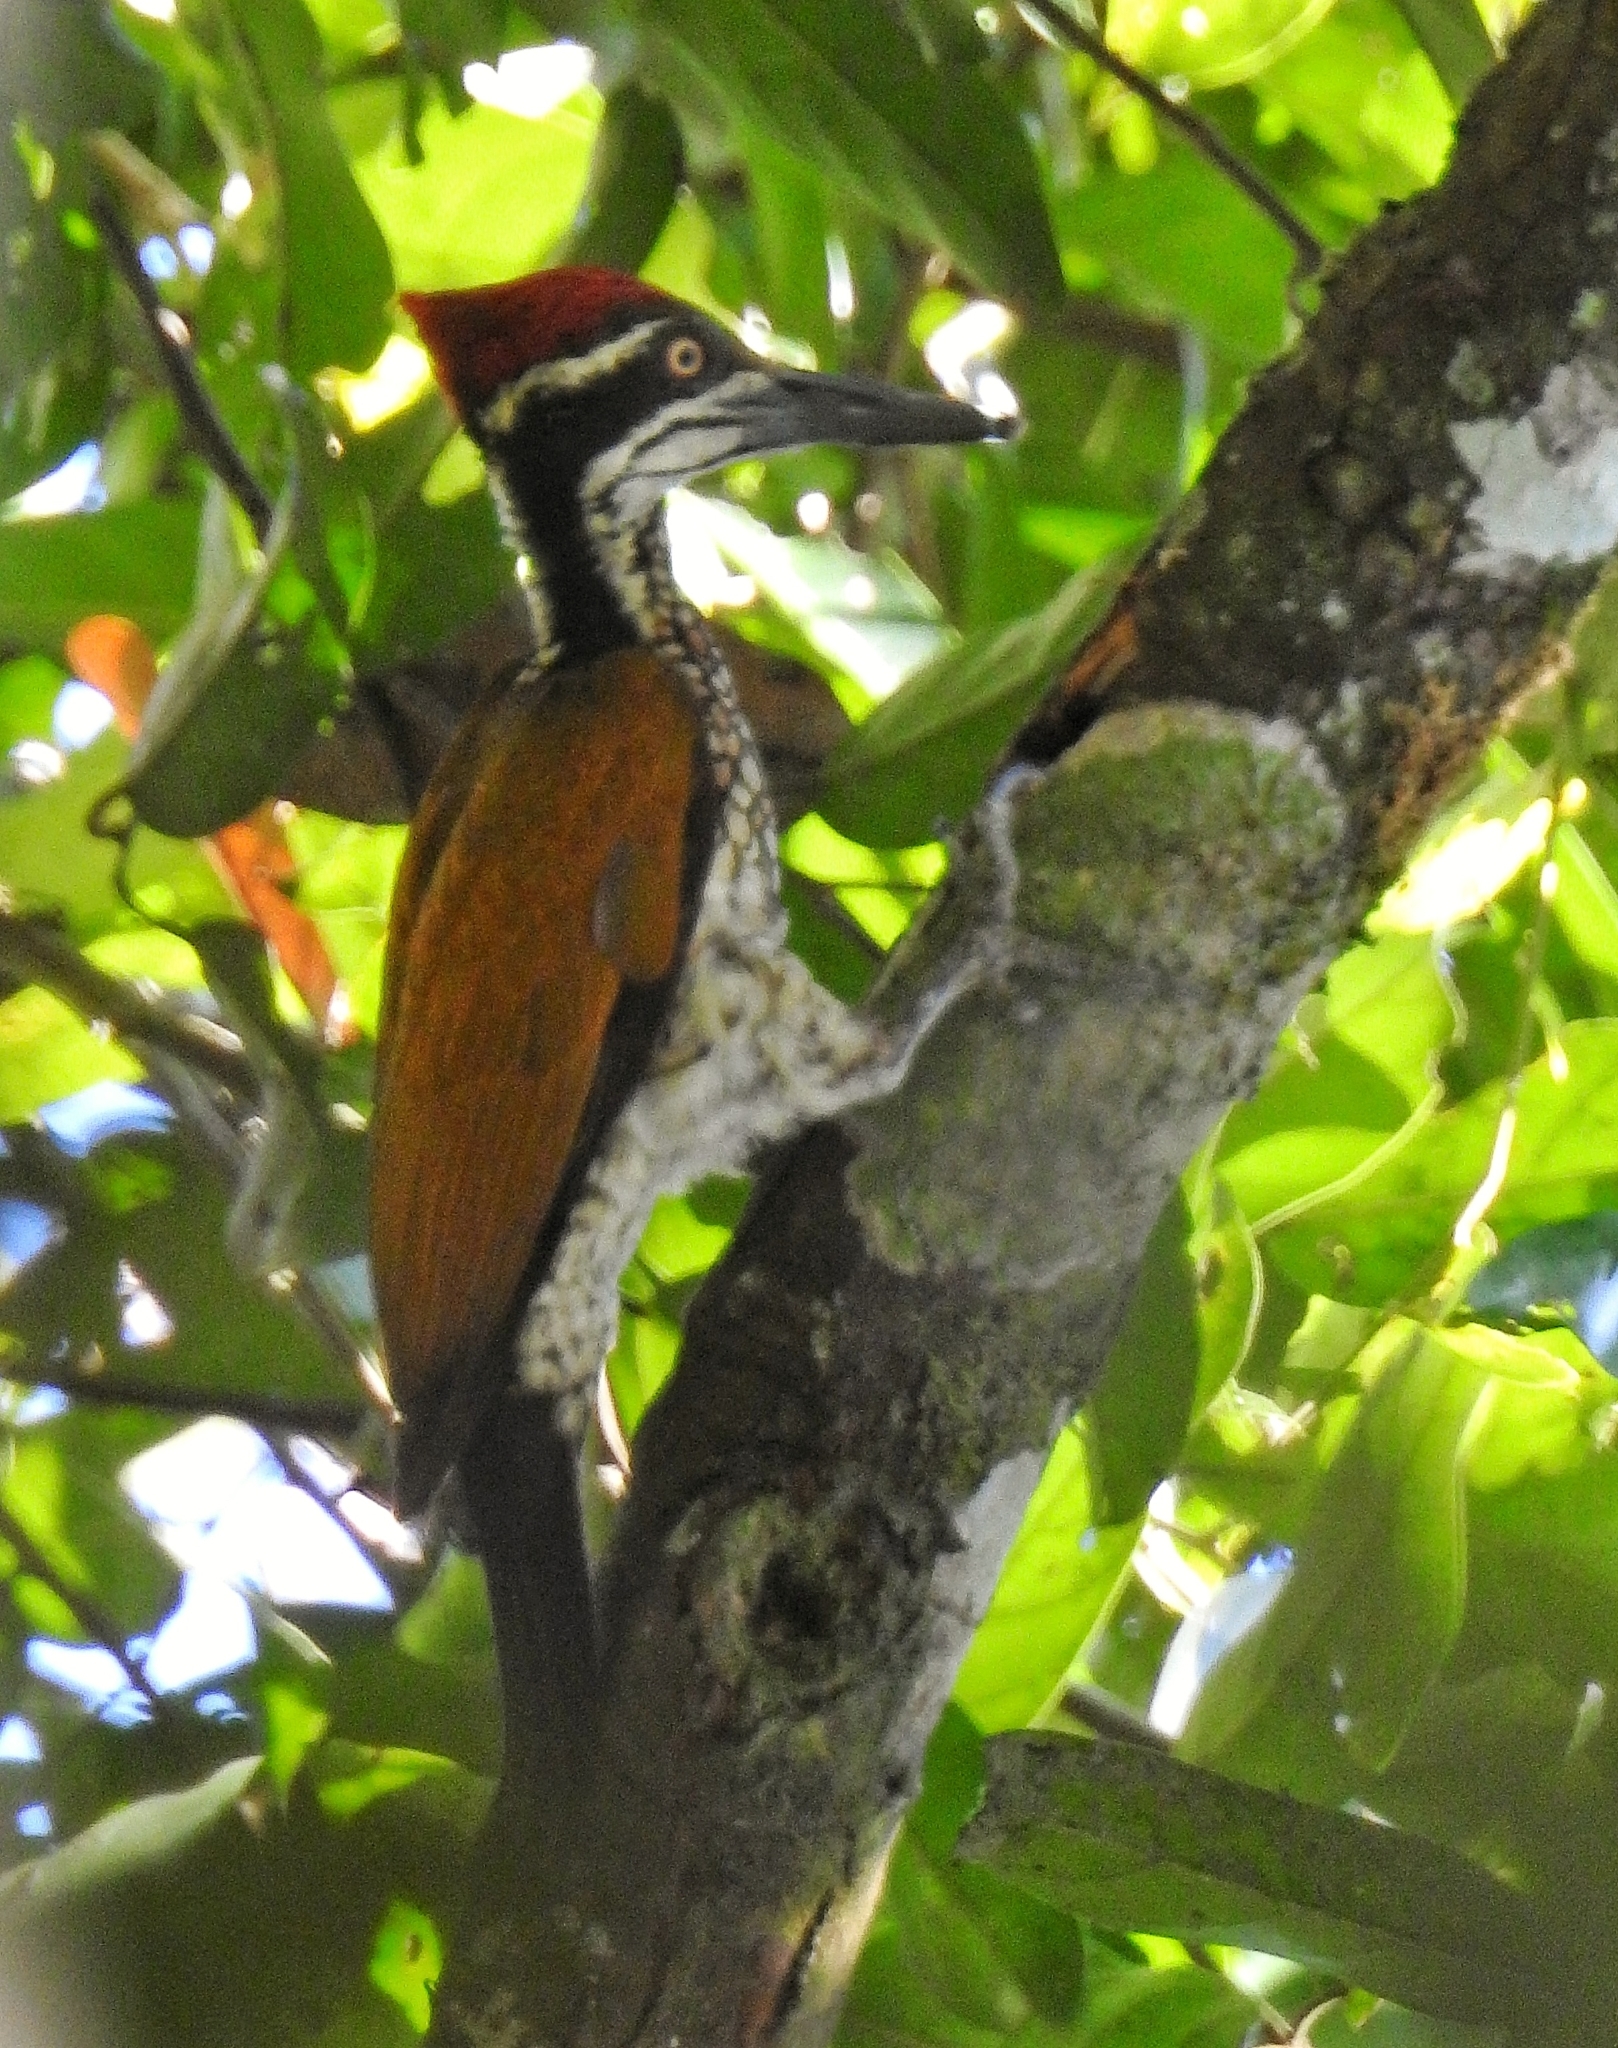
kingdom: Animalia
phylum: Chordata
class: Aves
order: Piciformes
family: Picidae
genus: Chrysocolaptes
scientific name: Chrysocolaptes socialis
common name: Malabar flameback
